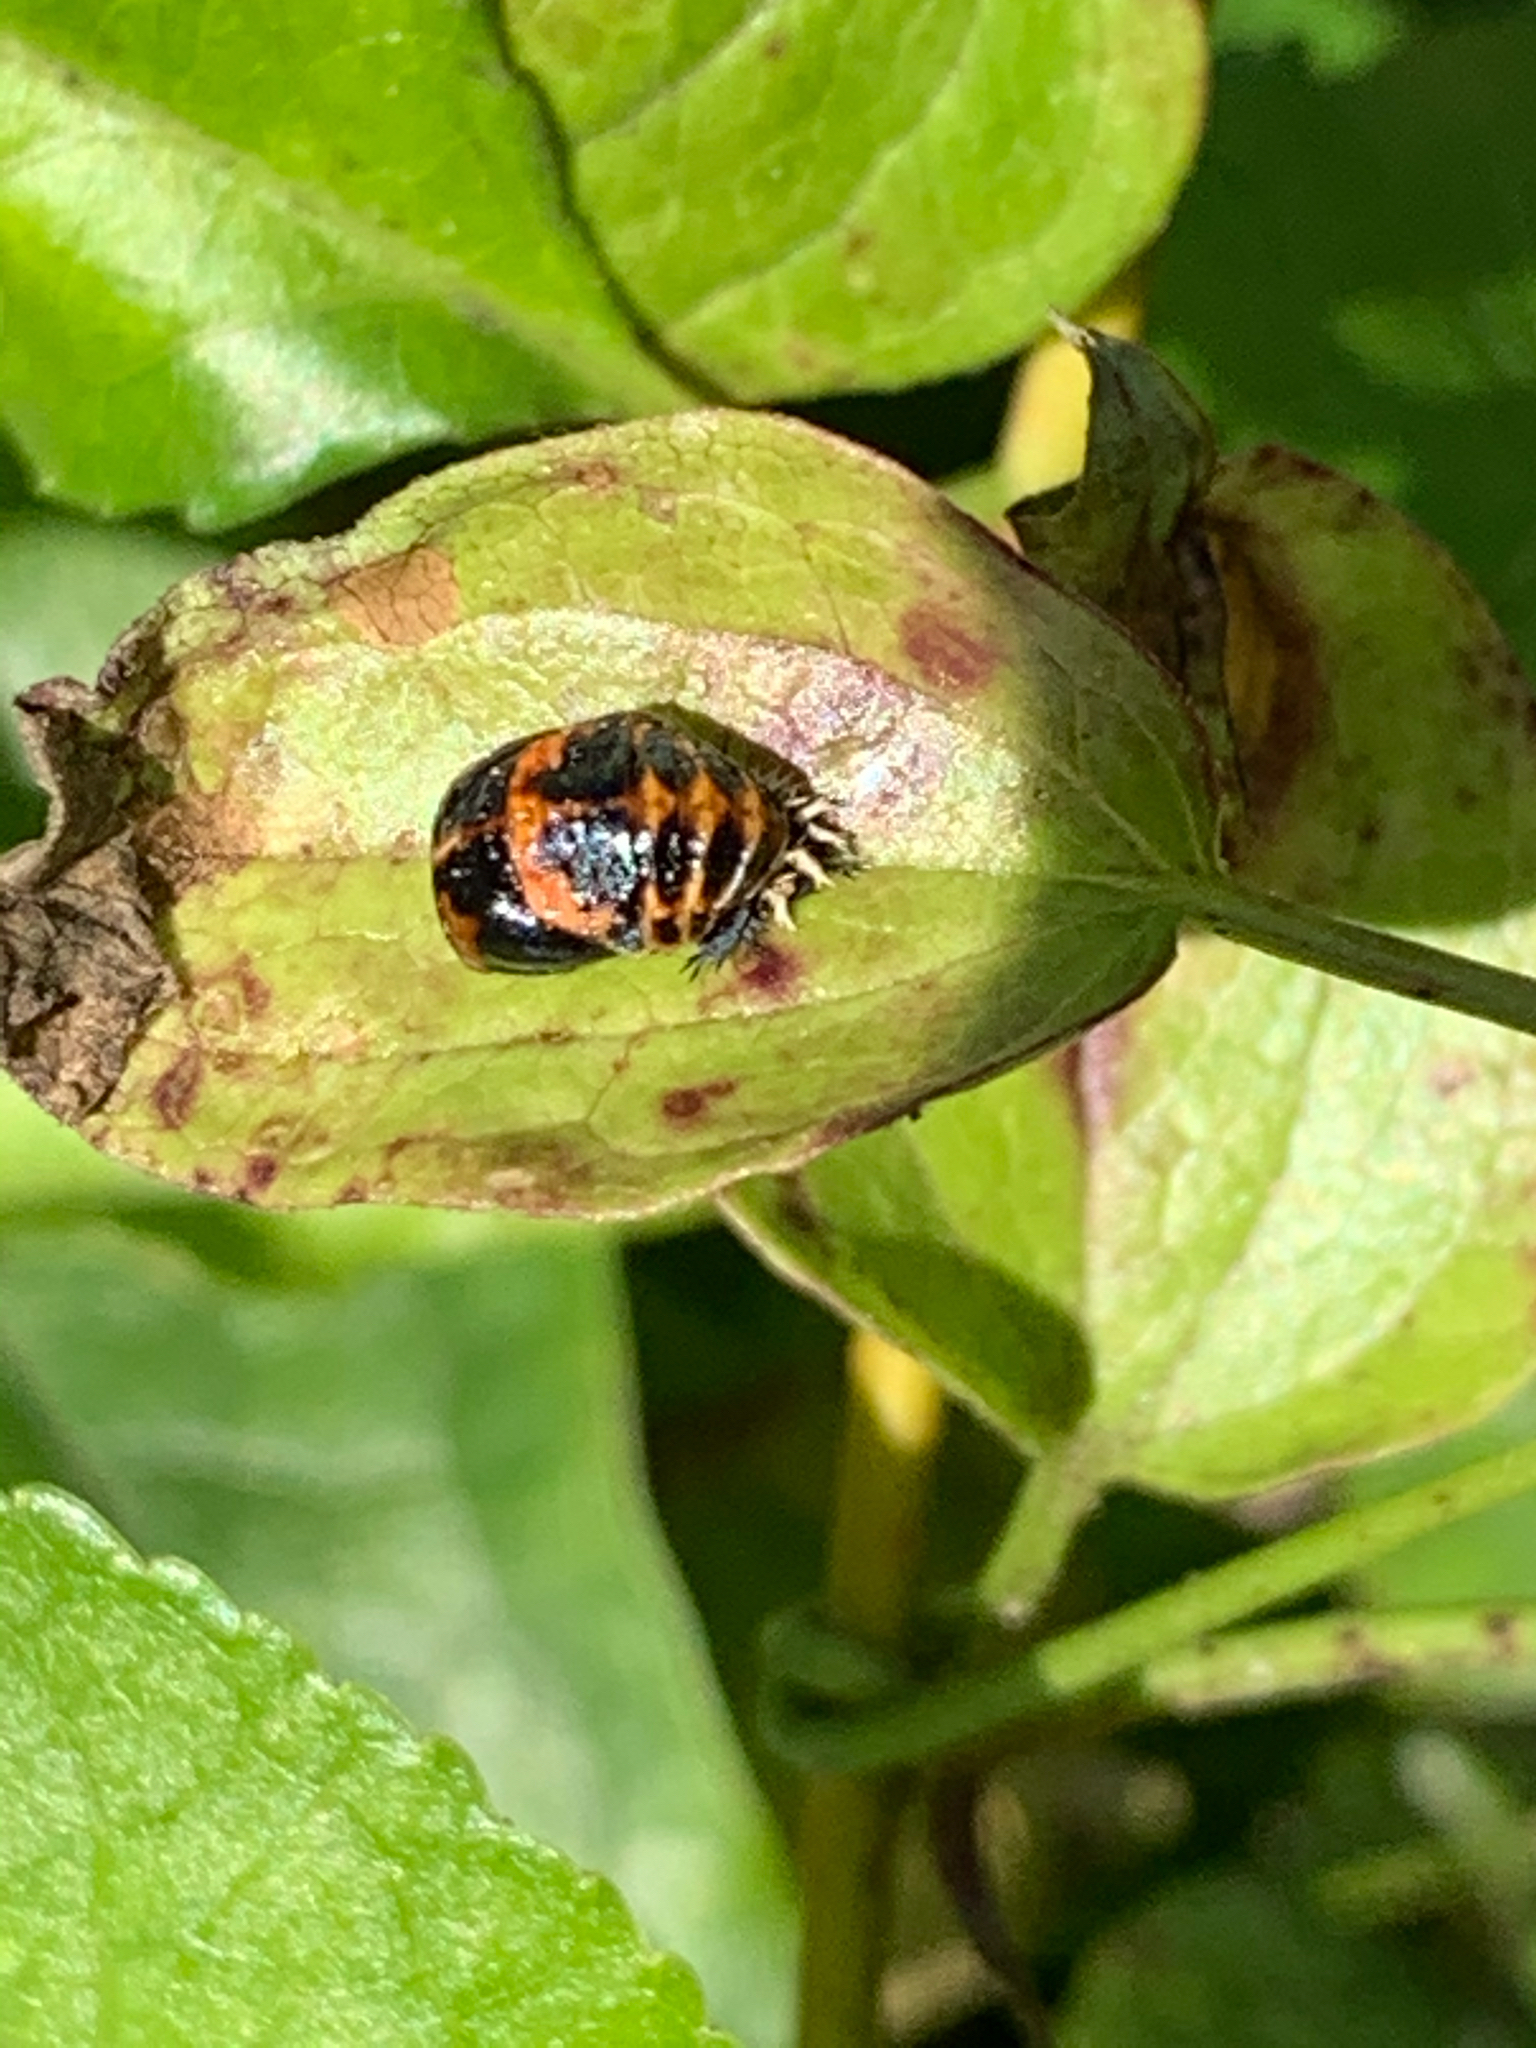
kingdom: Animalia
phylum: Arthropoda
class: Insecta
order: Coleoptera
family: Coccinellidae
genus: Harmonia
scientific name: Harmonia axyridis
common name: Harlequin ladybird
